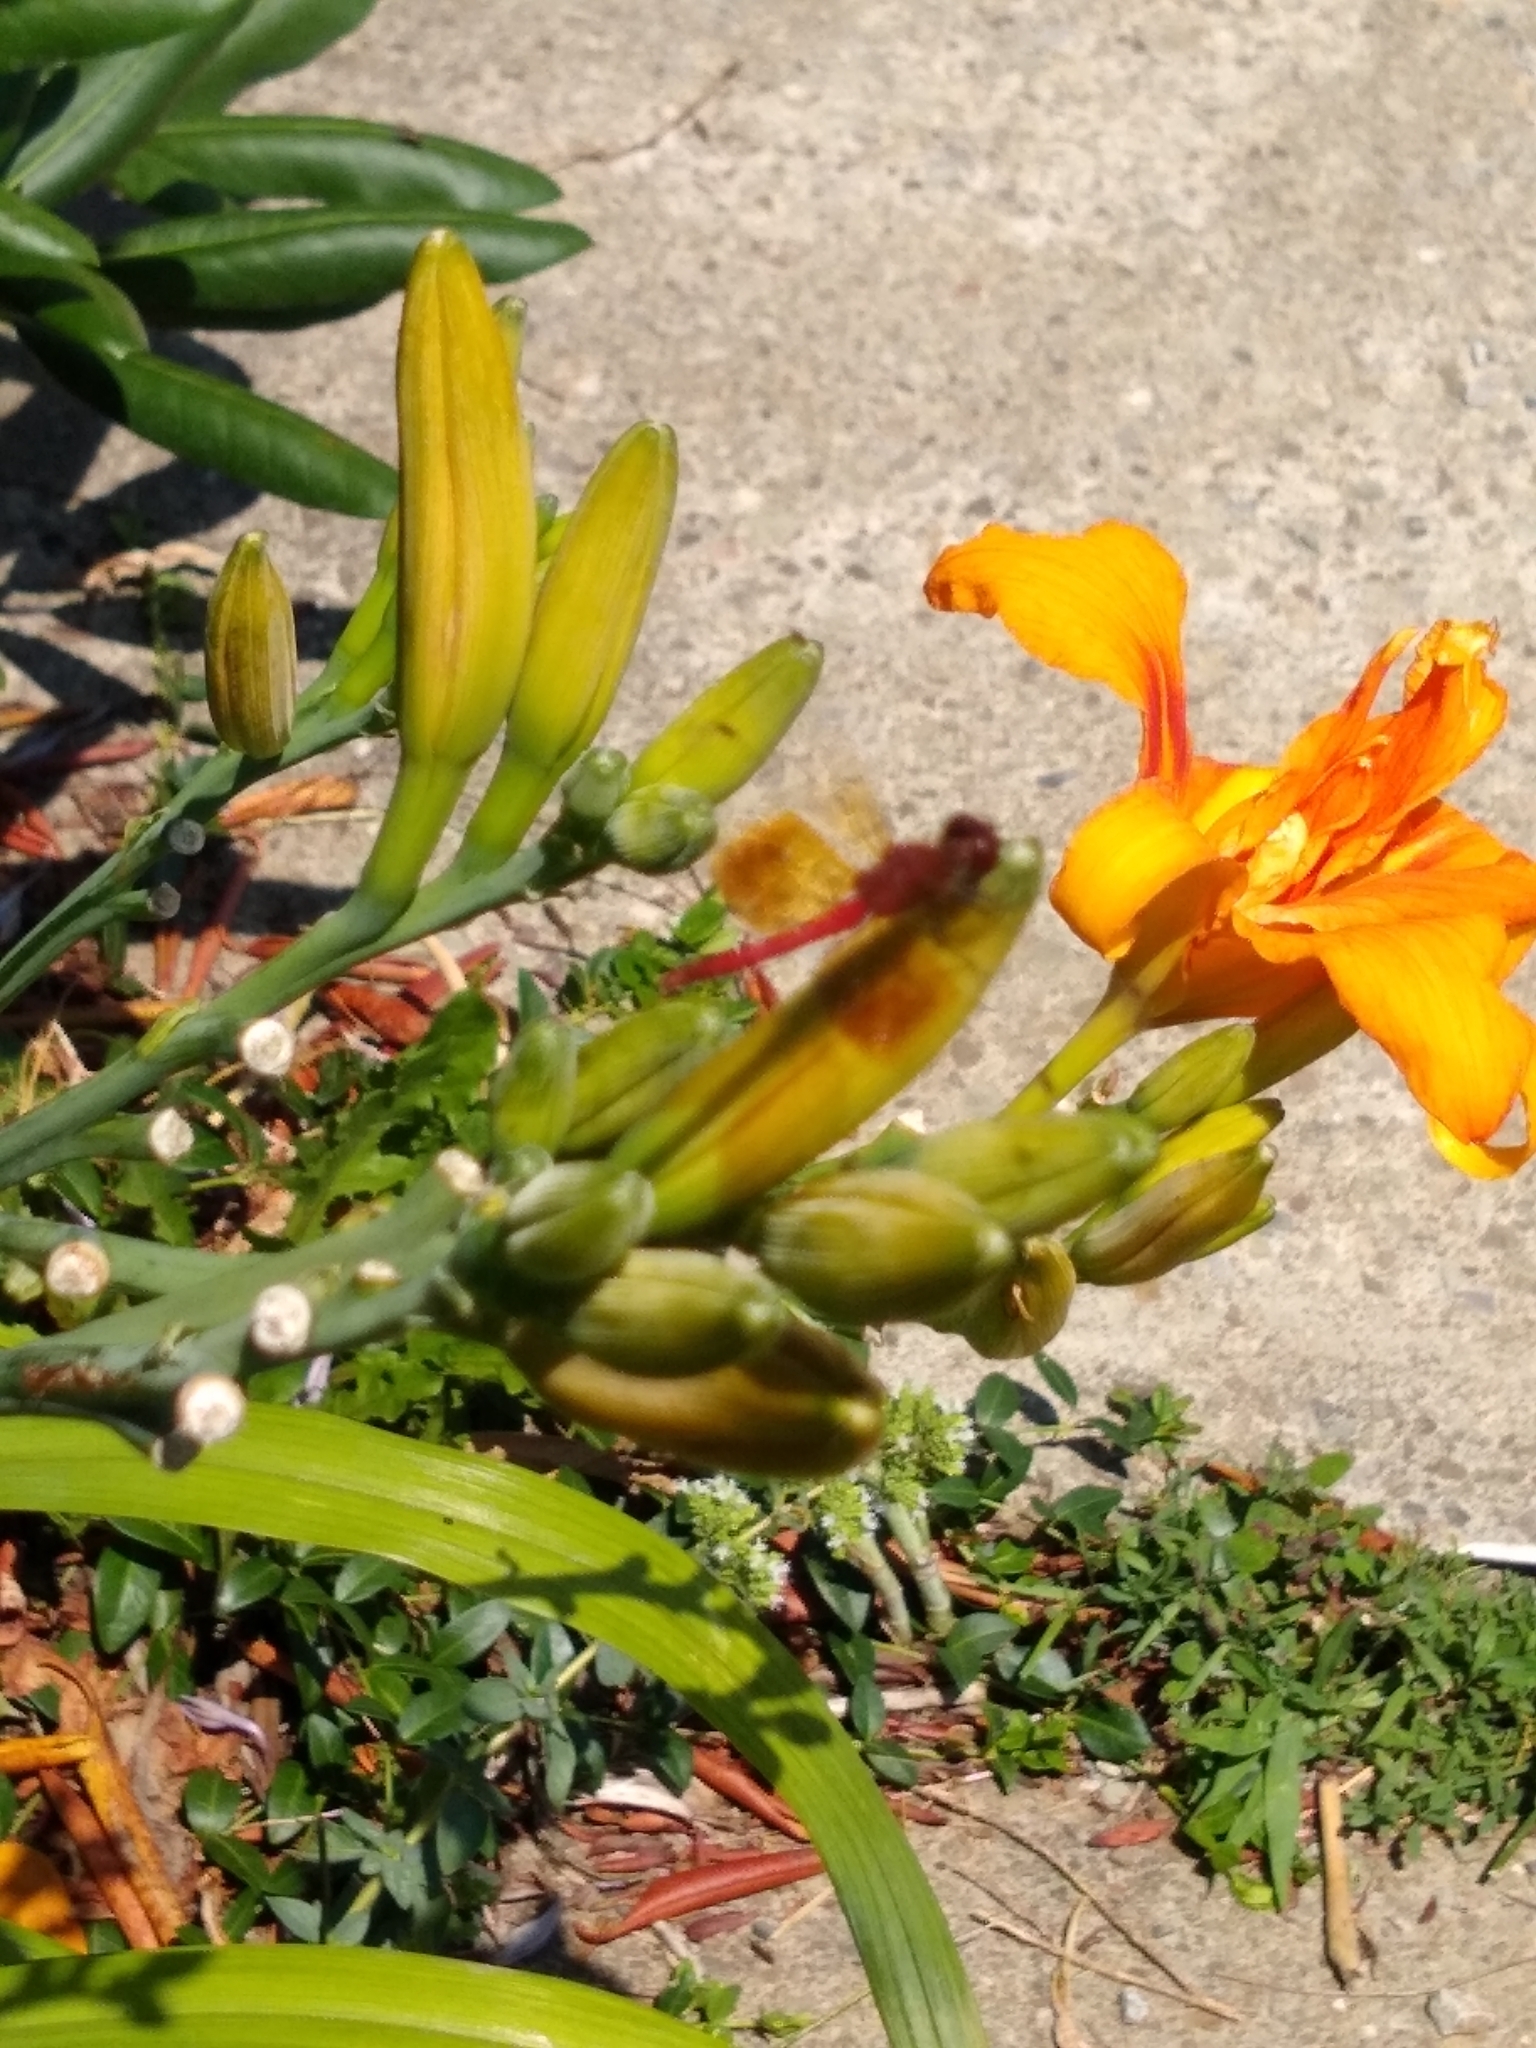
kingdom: Animalia
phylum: Arthropoda
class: Insecta
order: Odonata
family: Libellulidae
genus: Sympetrum
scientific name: Sympetrum semicinctum
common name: Band-winged meadowhawk
